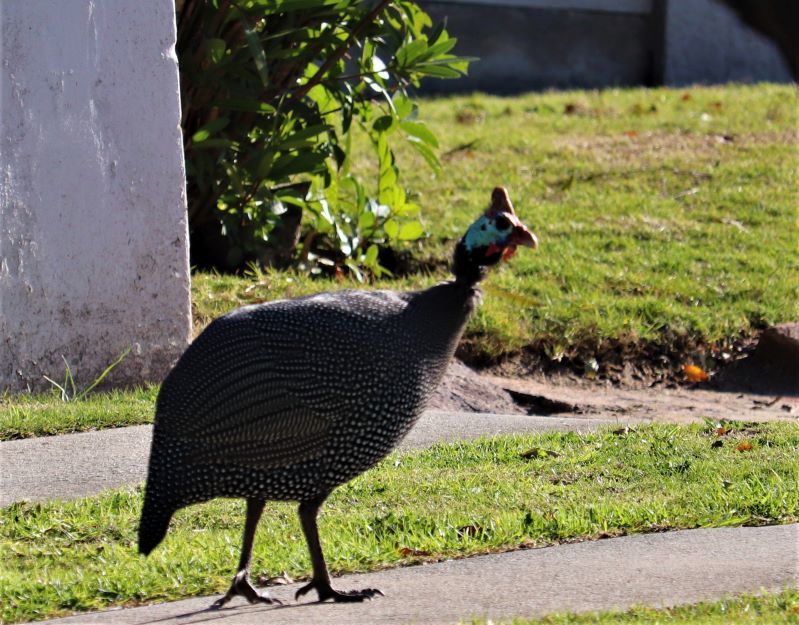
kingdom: Animalia
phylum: Chordata
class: Aves
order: Galliformes
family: Numididae
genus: Numida
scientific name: Numida meleagris
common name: Helmeted guineafowl
